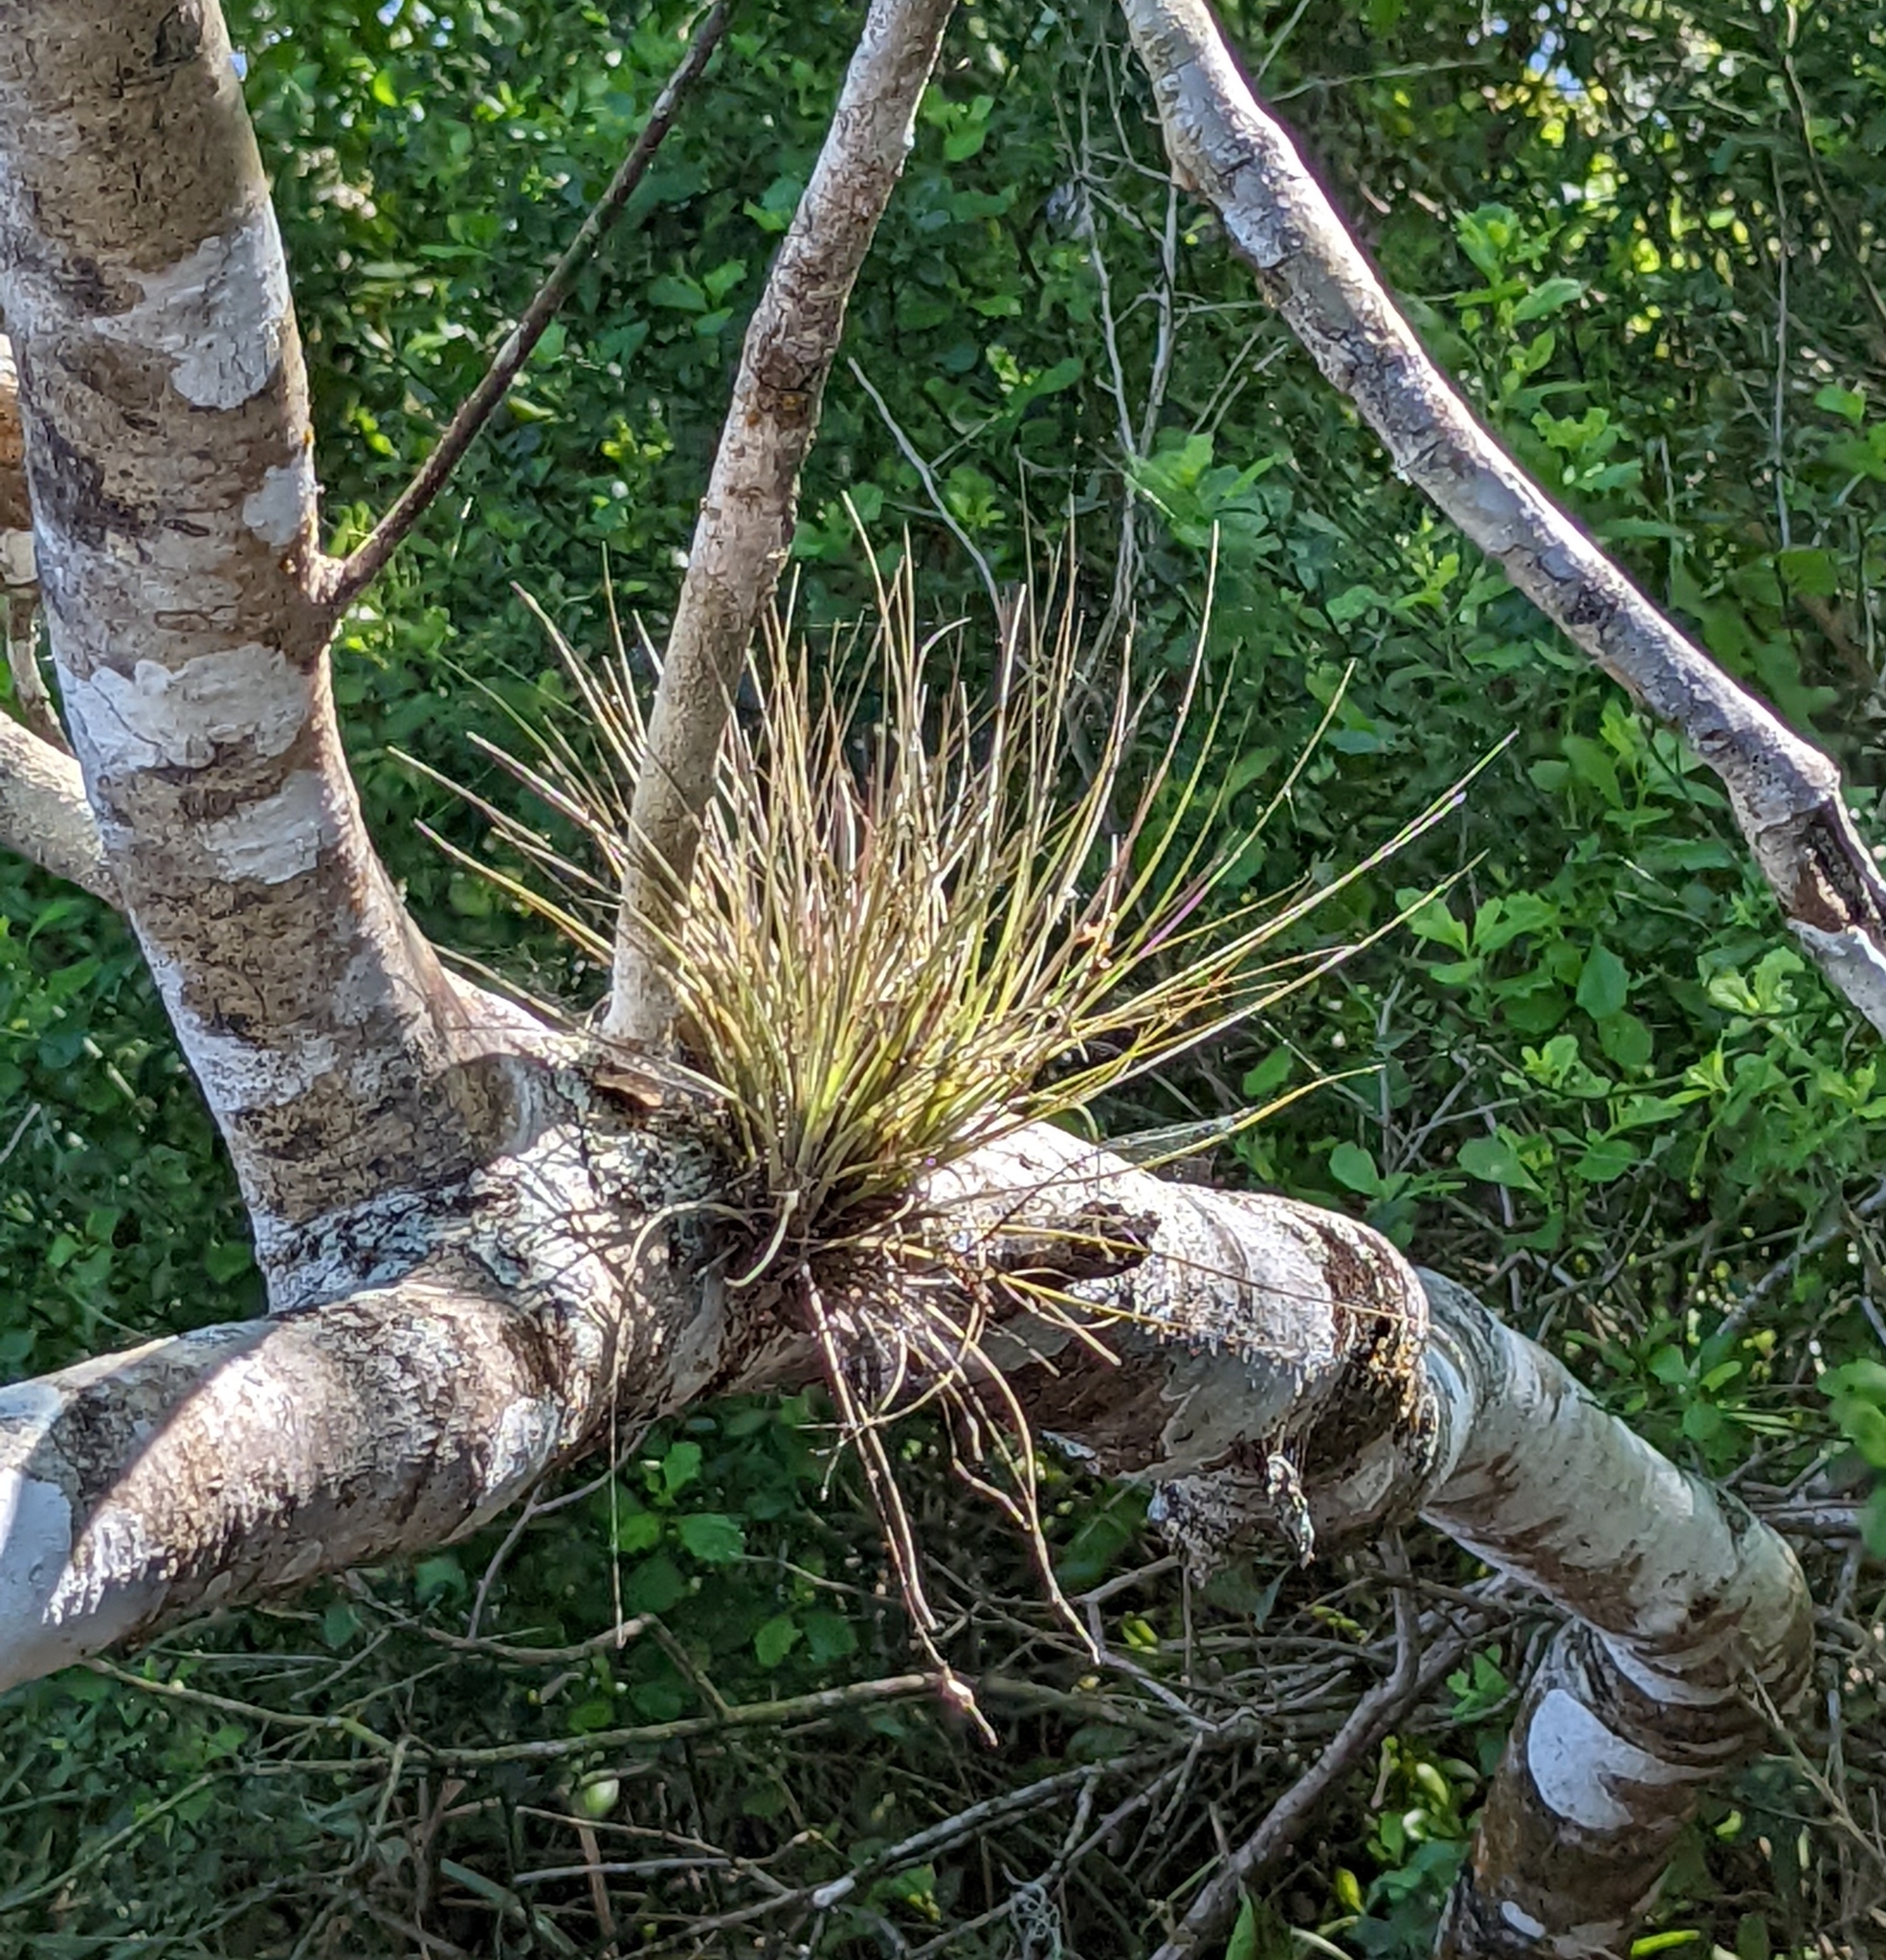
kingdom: Plantae
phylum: Tracheophyta
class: Liliopsida
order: Poales
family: Bromeliaceae
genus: Tillandsia
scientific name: Tillandsia bartramii
